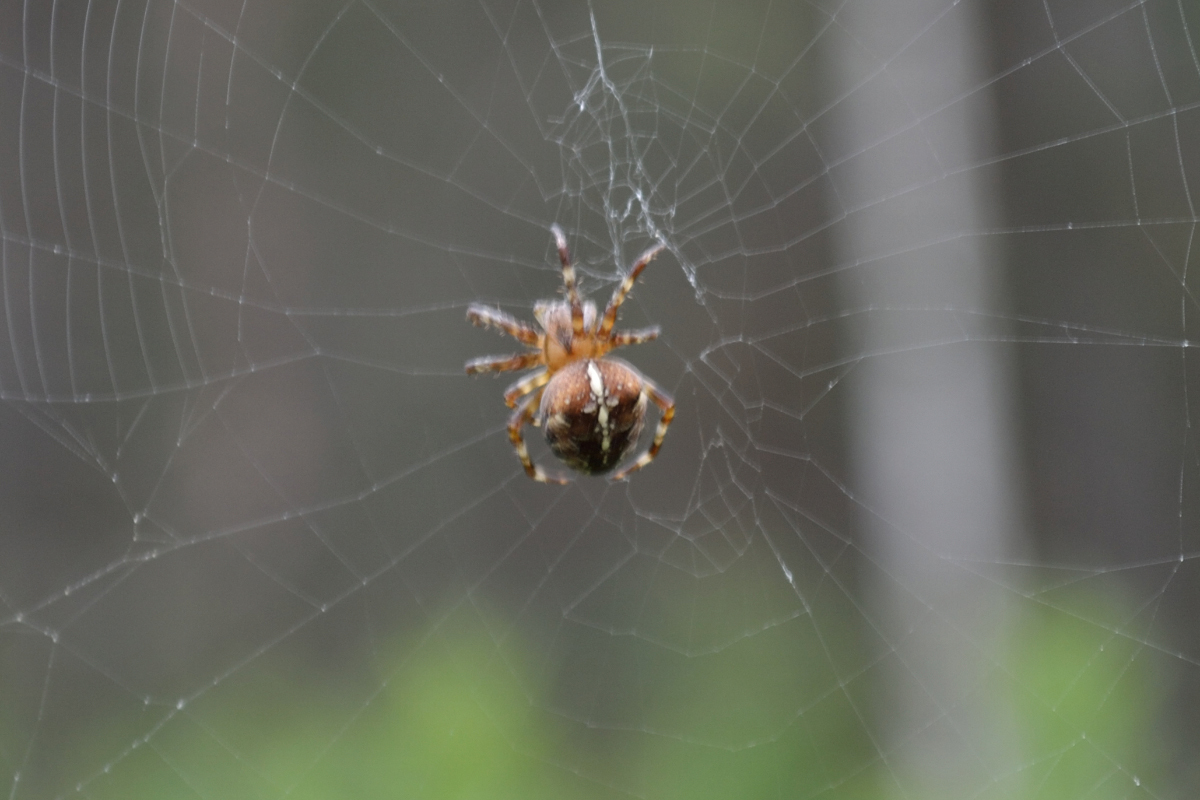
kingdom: Animalia
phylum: Arthropoda
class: Arachnida
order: Araneae
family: Araneidae
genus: Araneus
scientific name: Araneus diadematus
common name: Cross orbweaver
